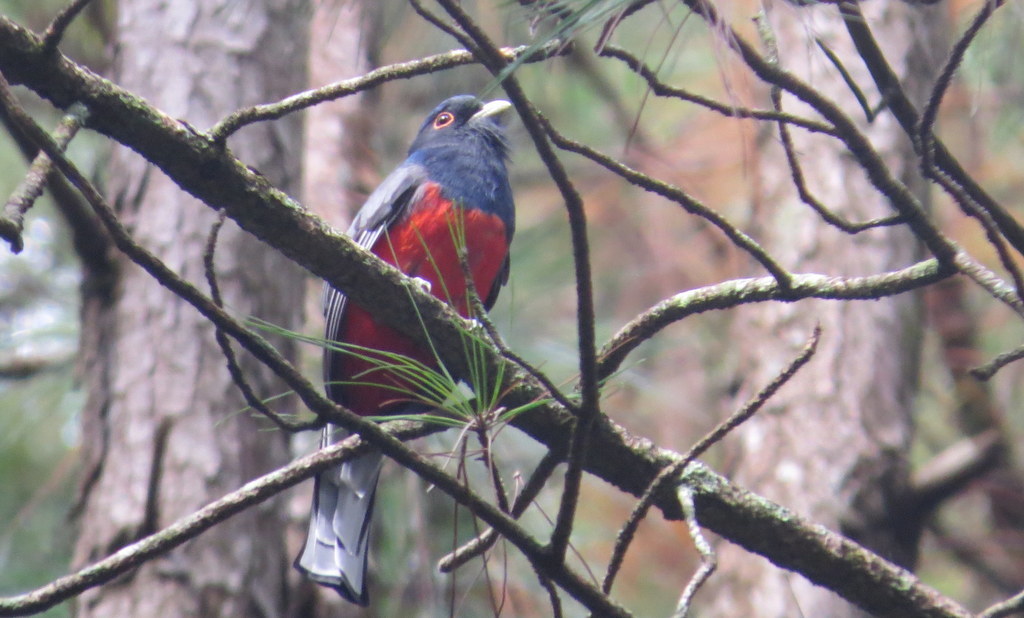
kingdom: Animalia
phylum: Chordata
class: Aves
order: Trogoniformes
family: Trogonidae
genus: Trogon
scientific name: Trogon surrucura
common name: Surucua trogon
